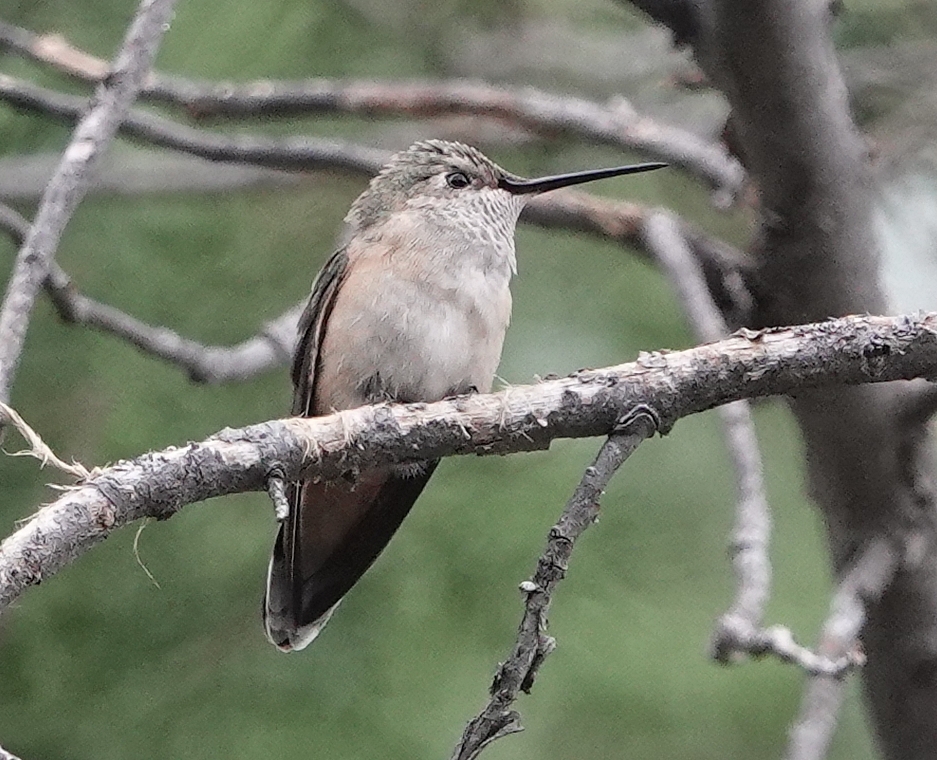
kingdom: Animalia
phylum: Chordata
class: Aves
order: Apodiformes
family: Trochilidae
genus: Selasphorus
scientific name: Selasphorus platycercus
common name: Broad-tailed hummingbird
